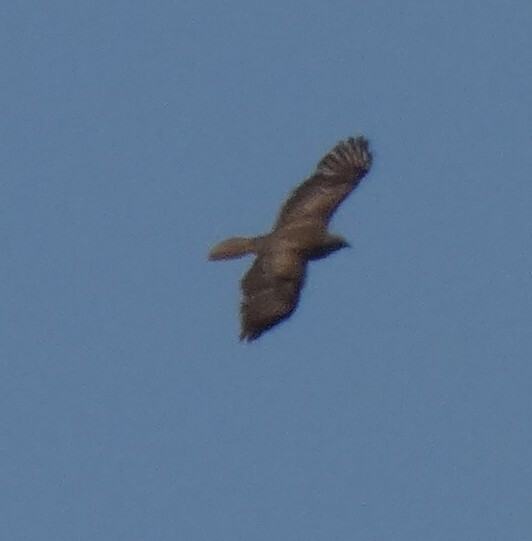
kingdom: Animalia
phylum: Chordata
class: Aves
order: Accipitriformes
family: Accipitridae
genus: Buteo
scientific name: Buteo buteo
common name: Common buzzard
